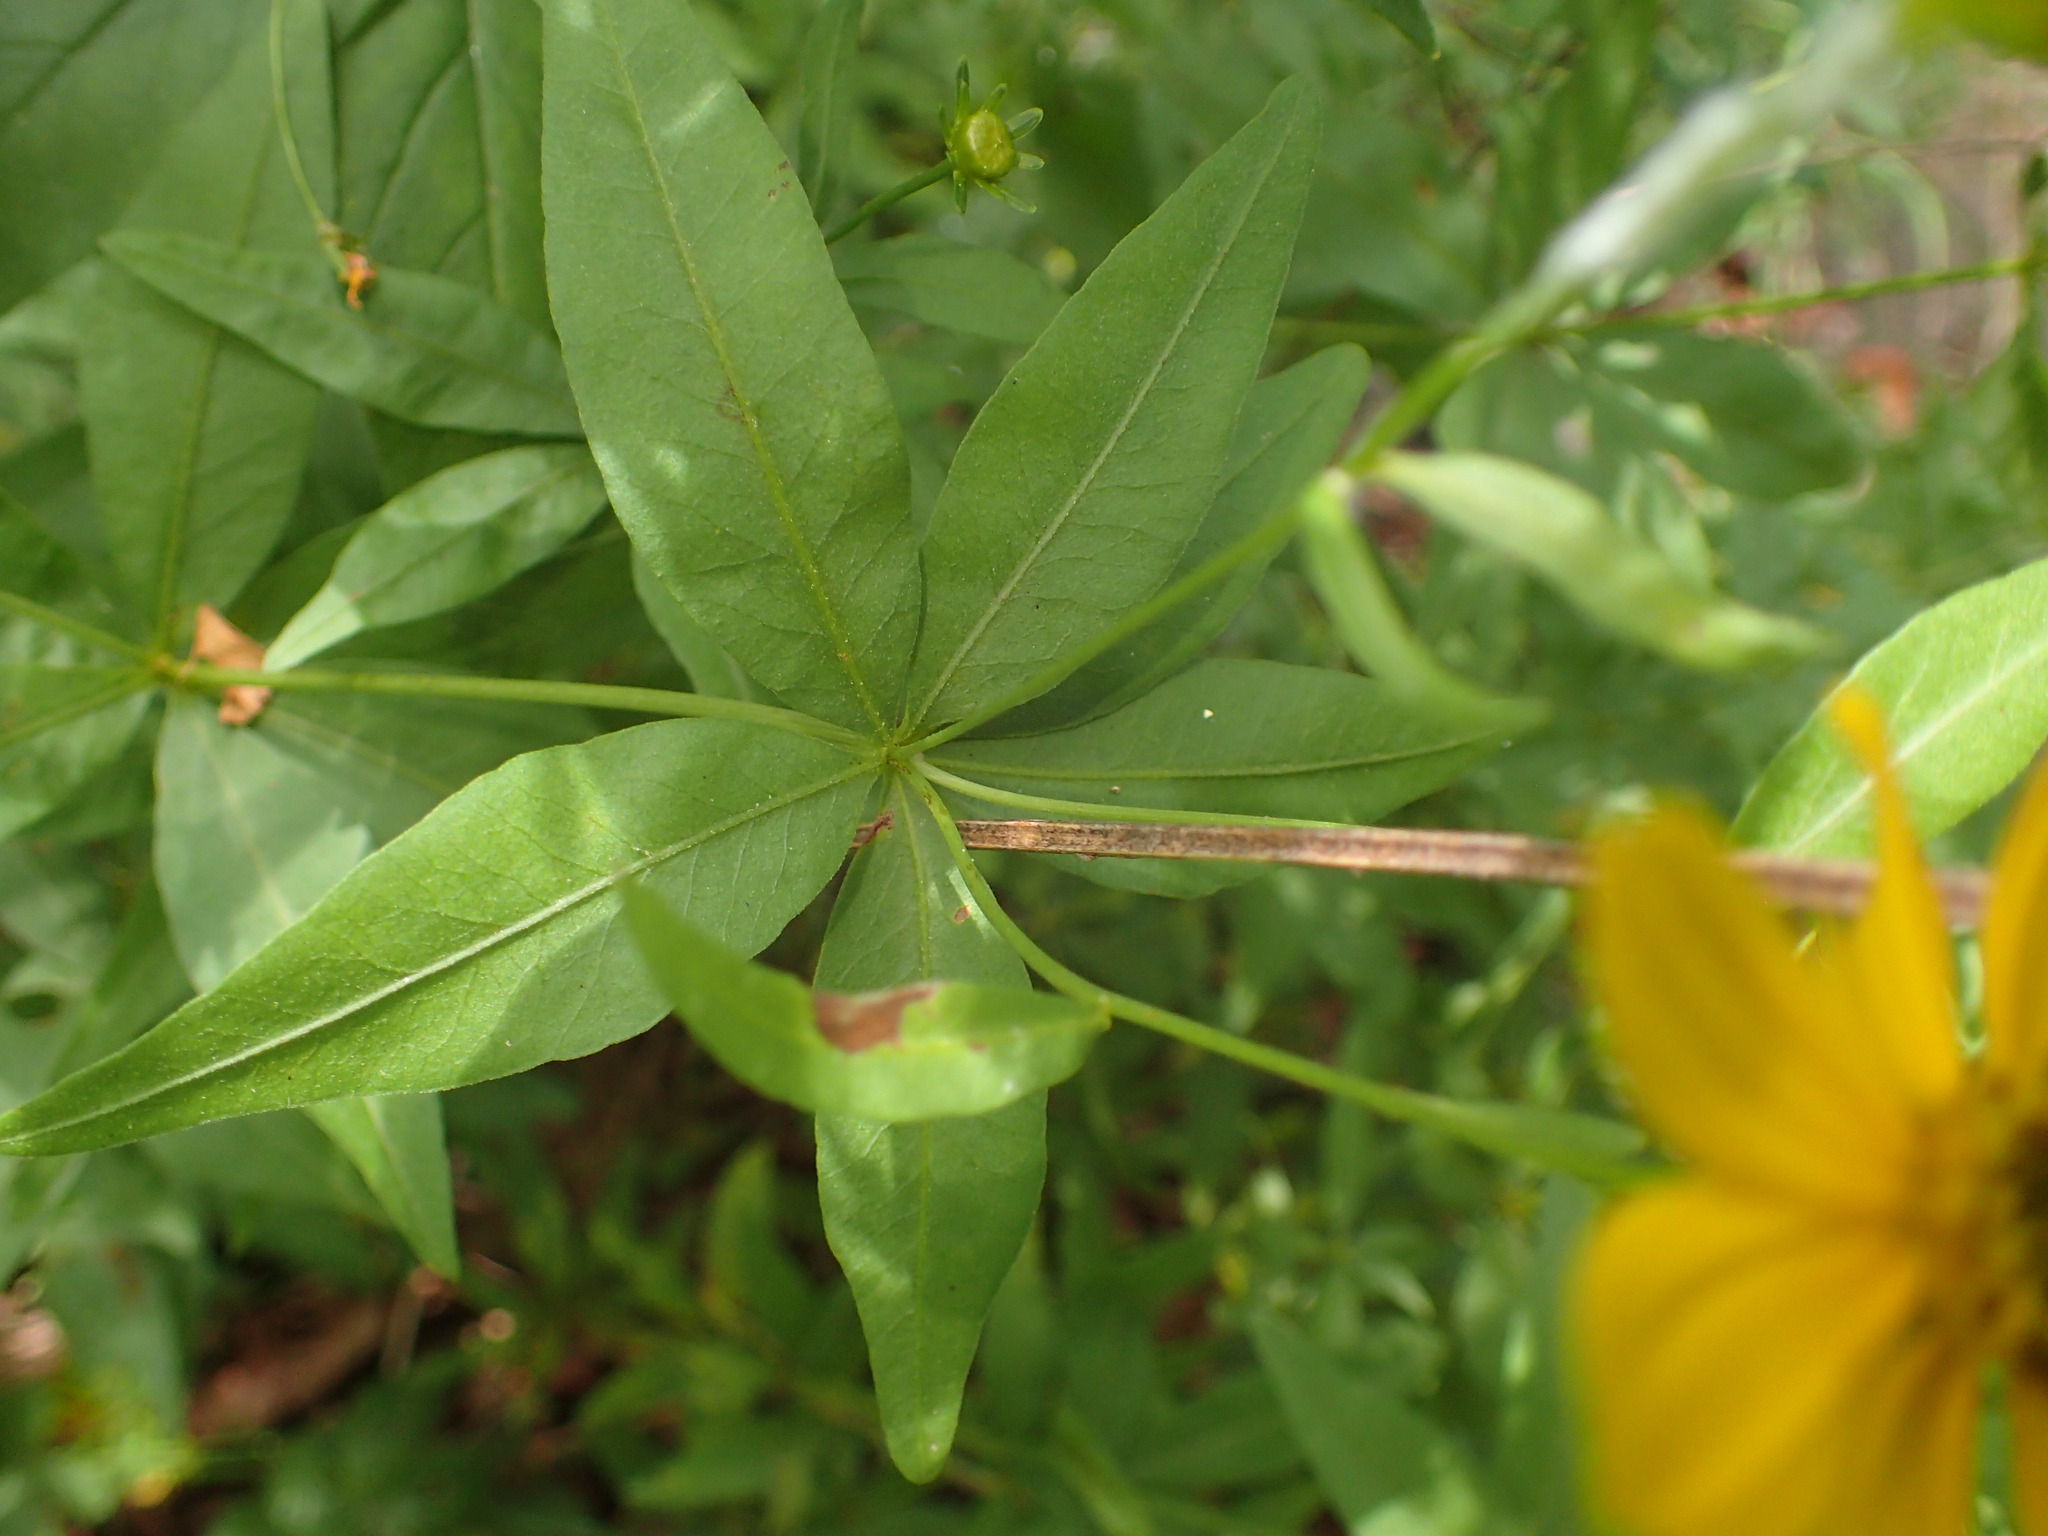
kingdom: Plantae
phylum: Tracheophyta
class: Magnoliopsida
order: Asterales
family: Asteraceae
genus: Coreopsis
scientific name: Coreopsis major
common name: Forest tickseed
